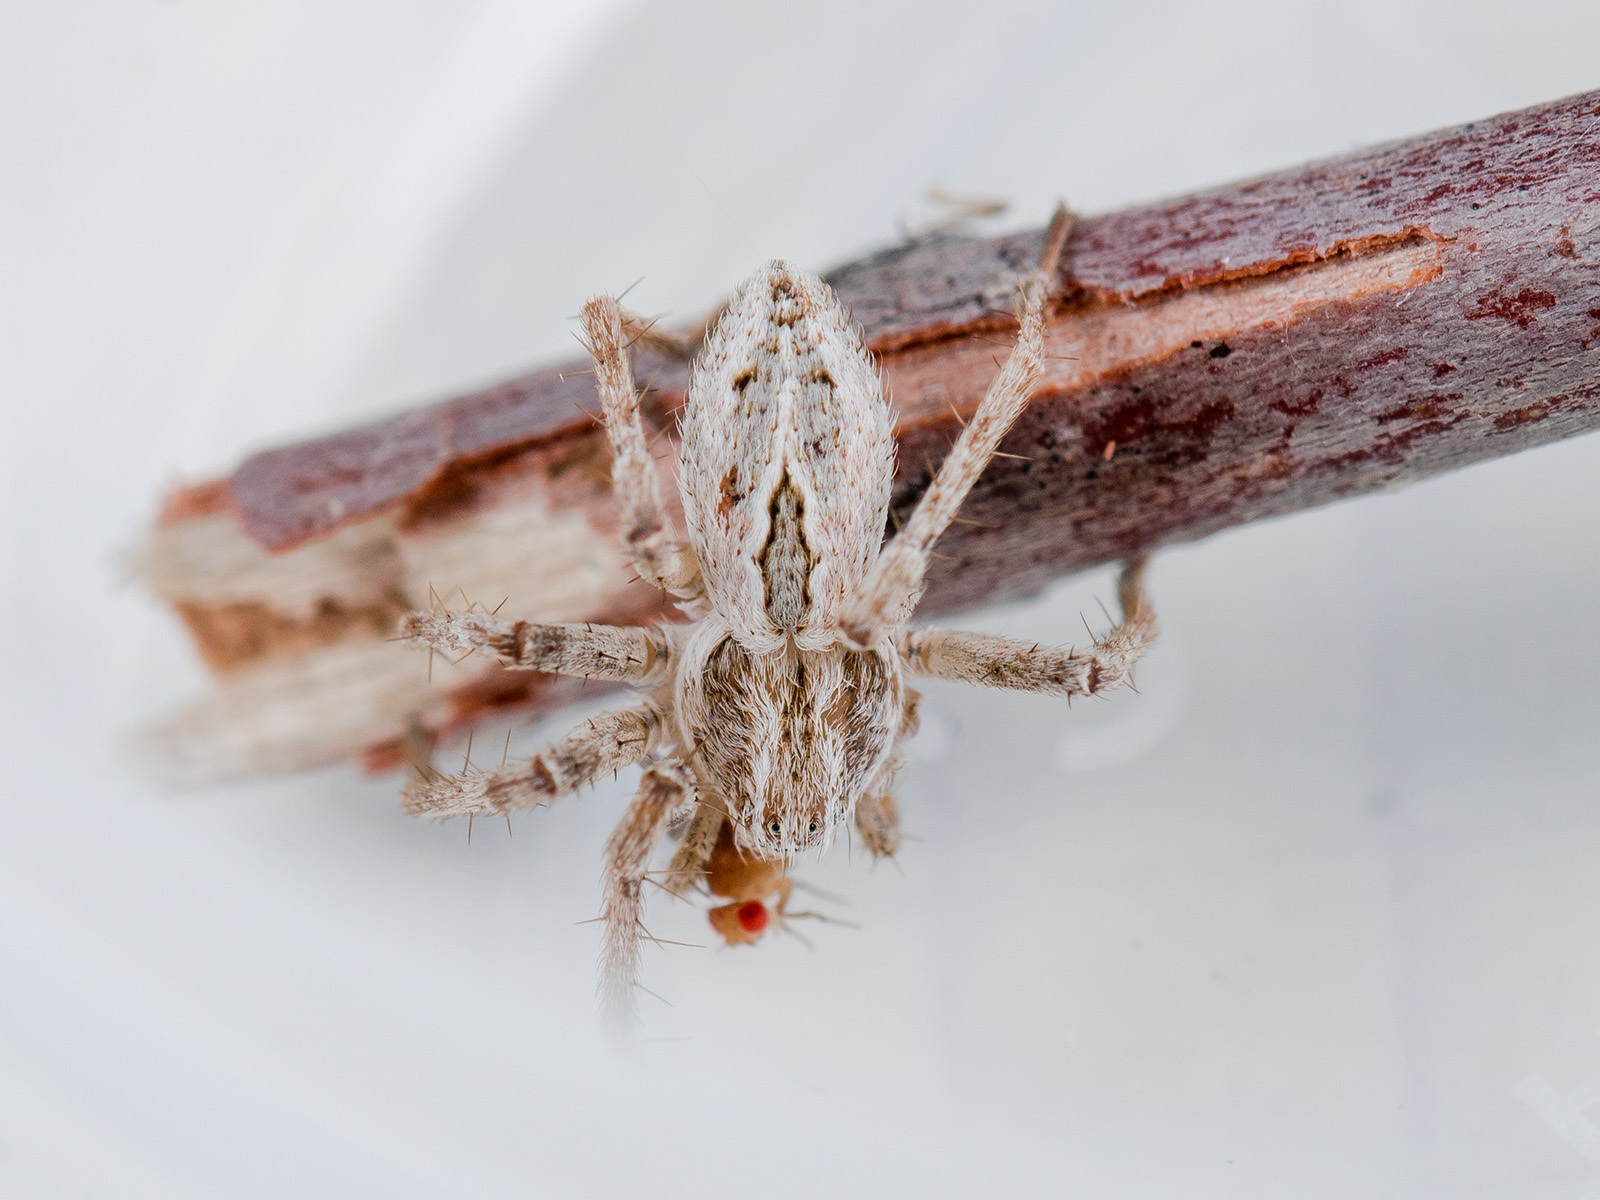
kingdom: Animalia
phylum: Arthropoda
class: Arachnida
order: Araneae
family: Philodromidae
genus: Thanatus
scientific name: Thanatus vulgaris
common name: European running crab spider
